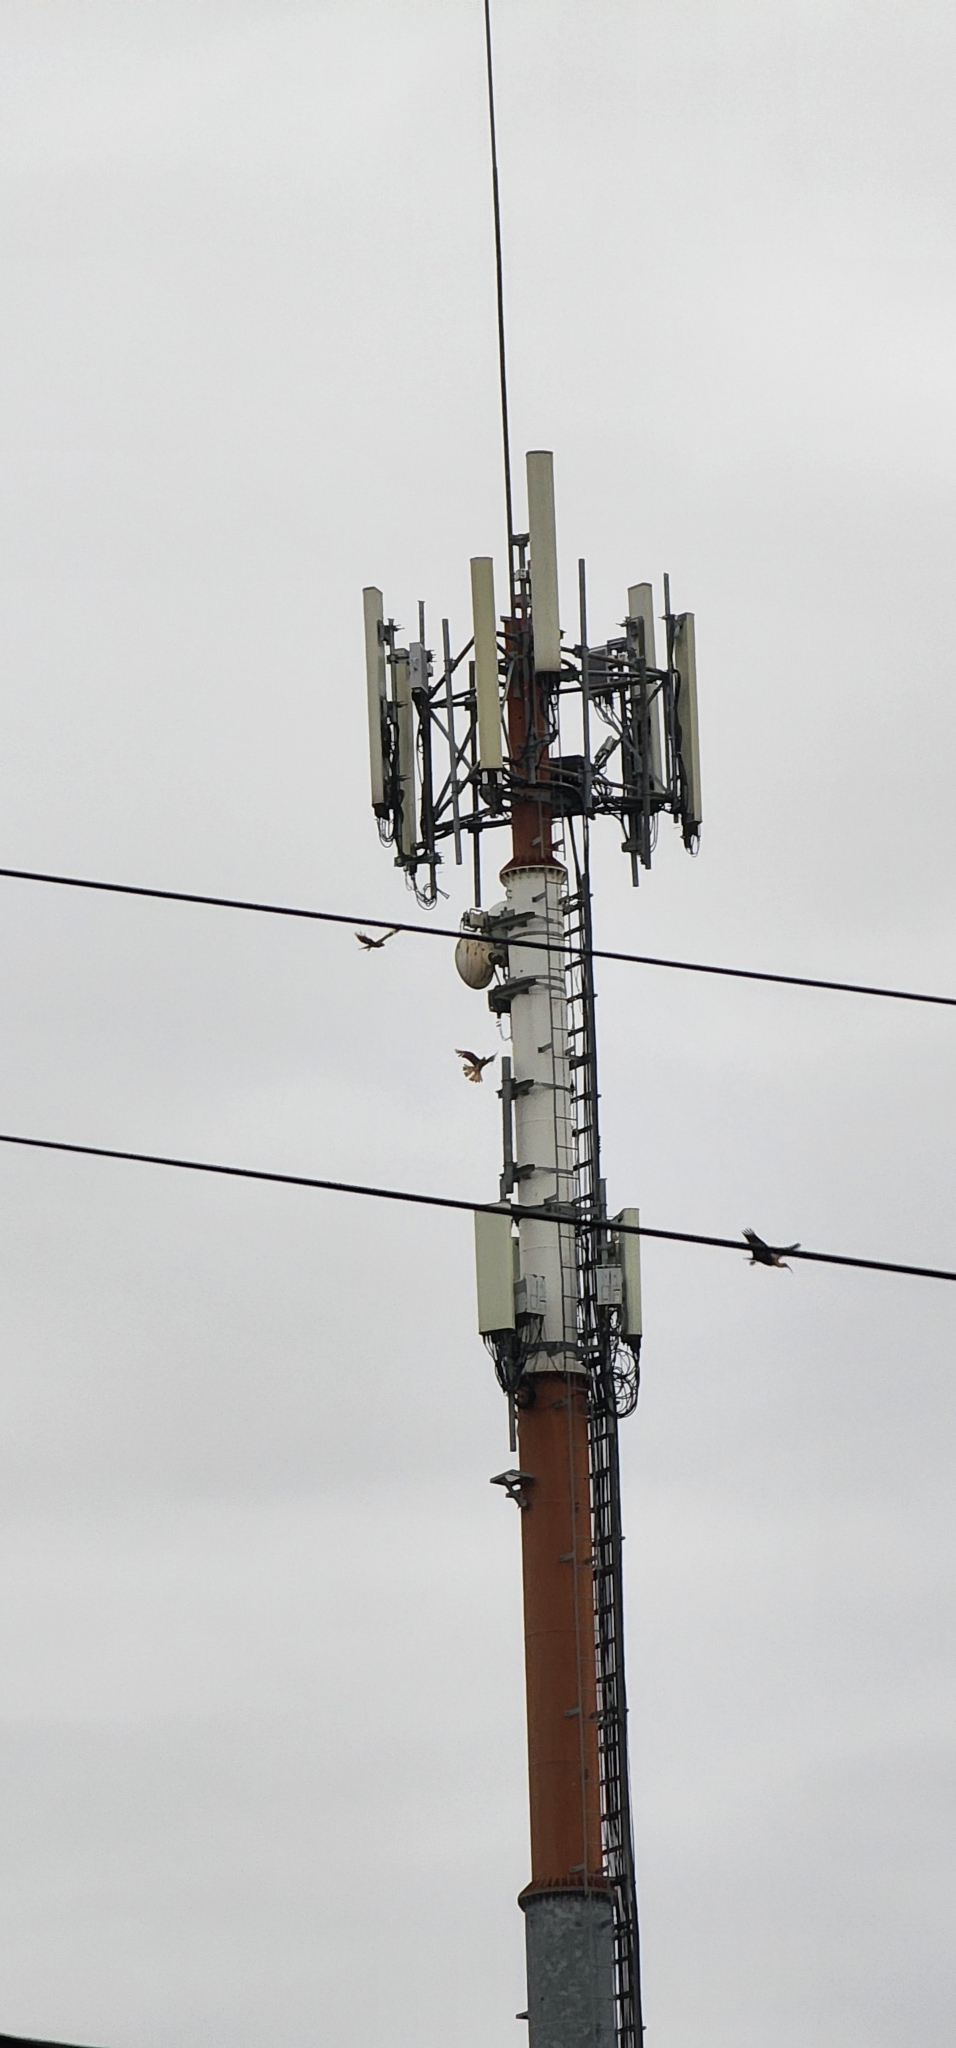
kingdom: Animalia
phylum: Chordata
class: Aves
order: Falconiformes
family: Falconidae
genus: Daptrius
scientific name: Daptrius
